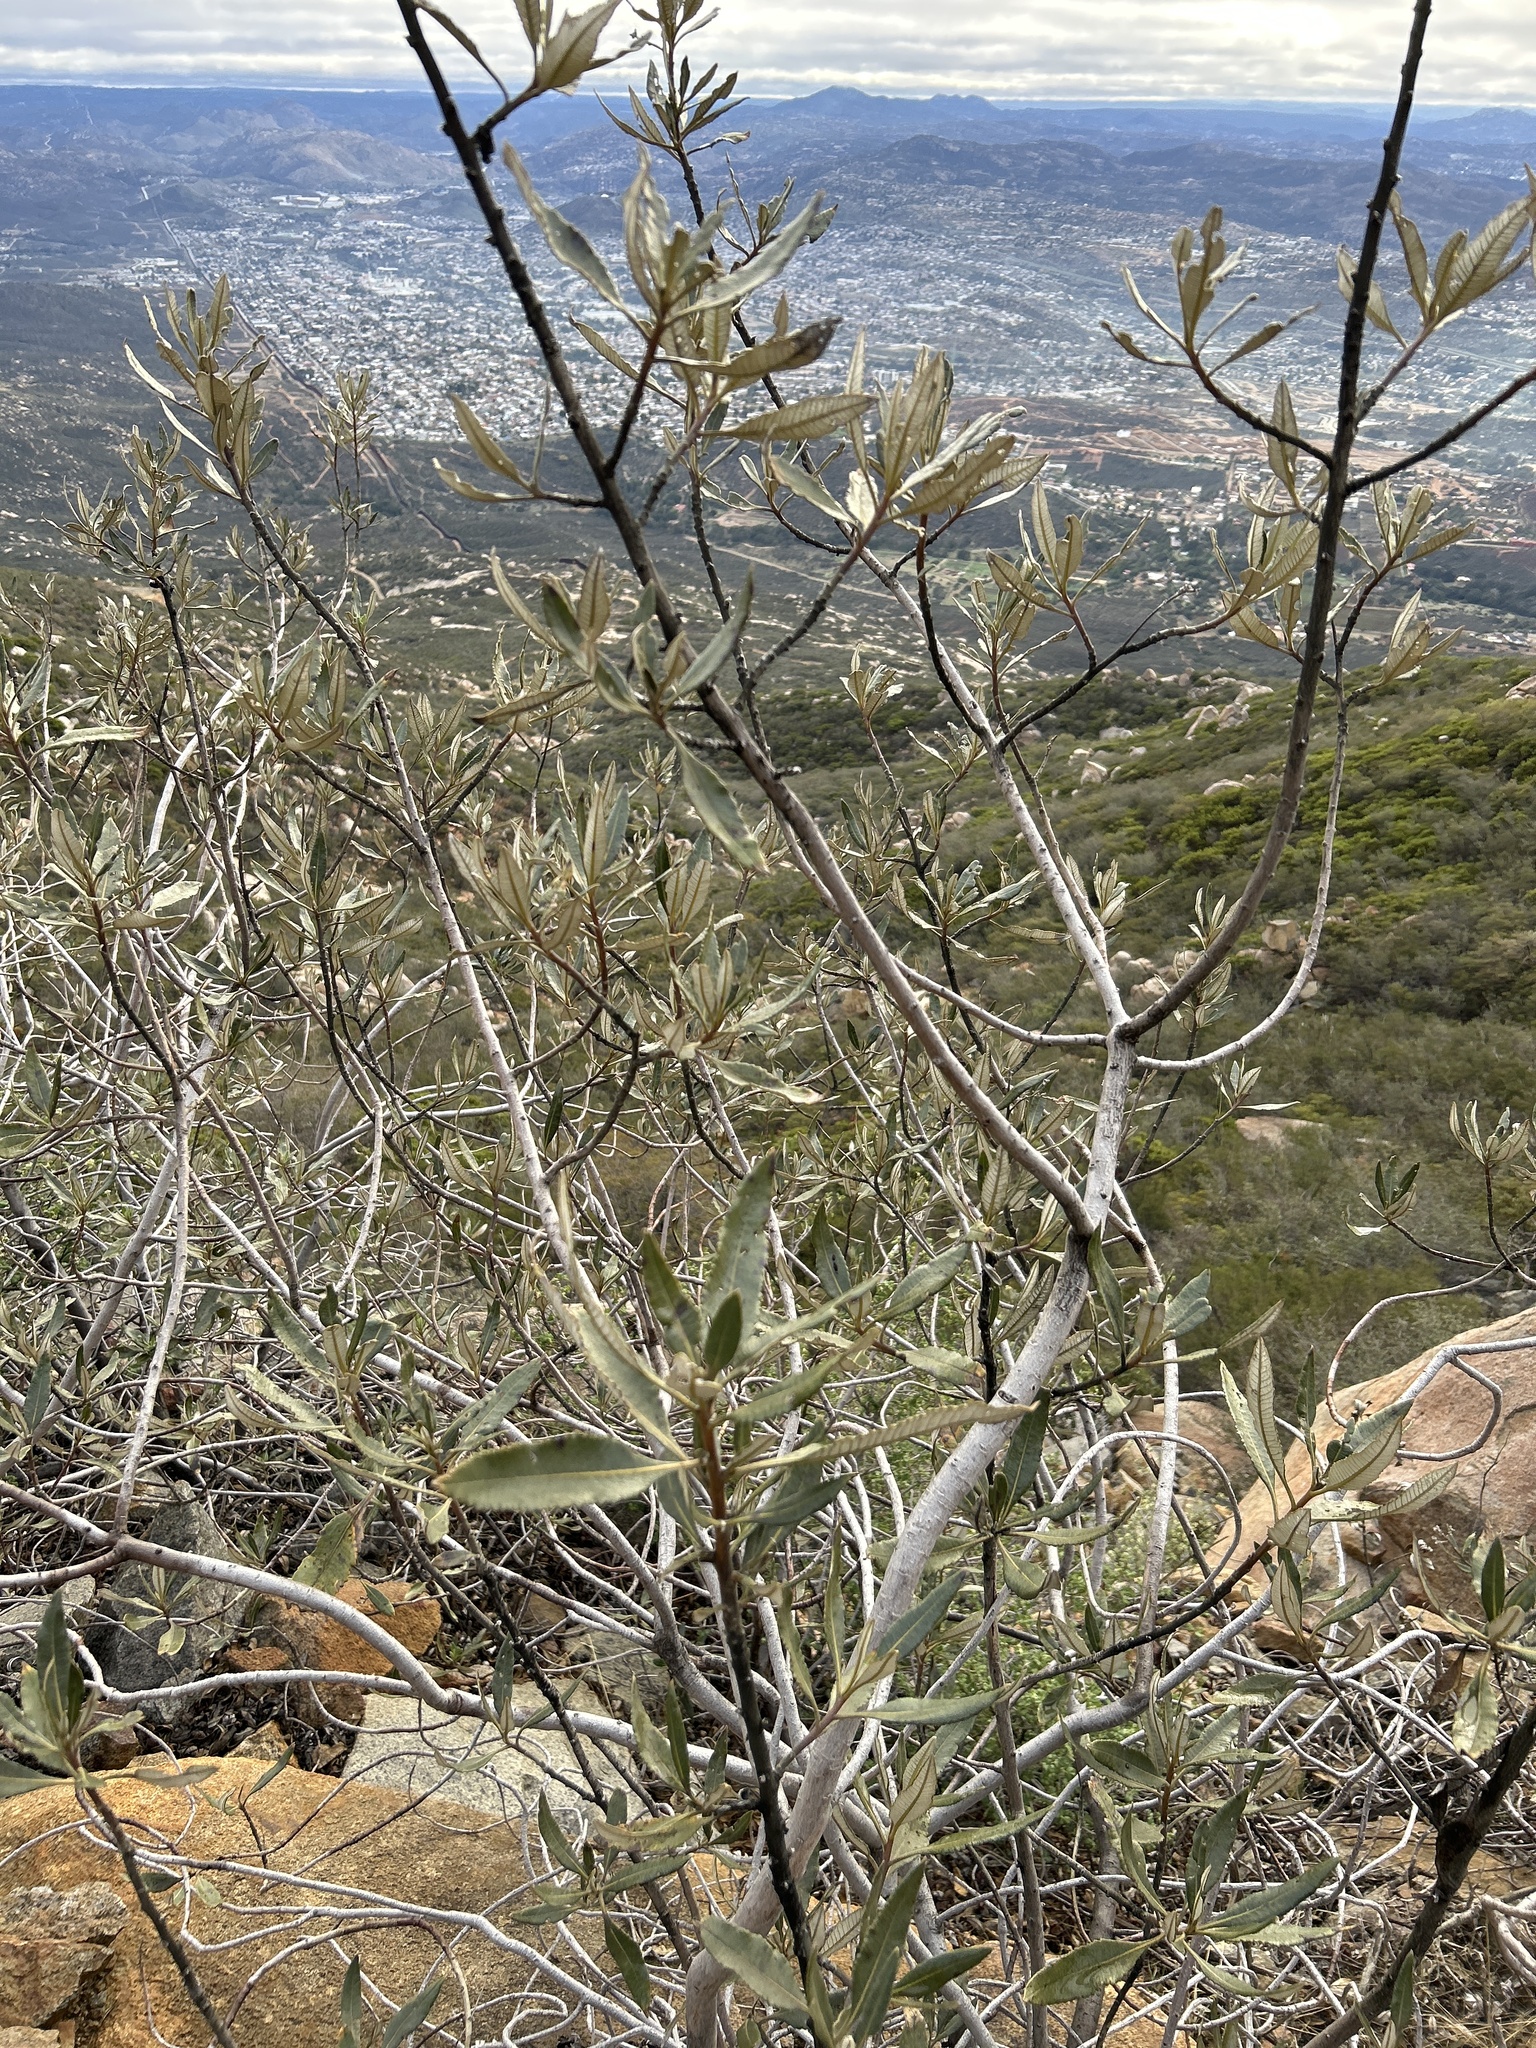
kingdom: Plantae
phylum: Tracheophyta
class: Magnoliopsida
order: Boraginales
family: Namaceae
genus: Eriodictyon
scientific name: Eriodictyon trichocalyx
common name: Hairy yerba-santa
